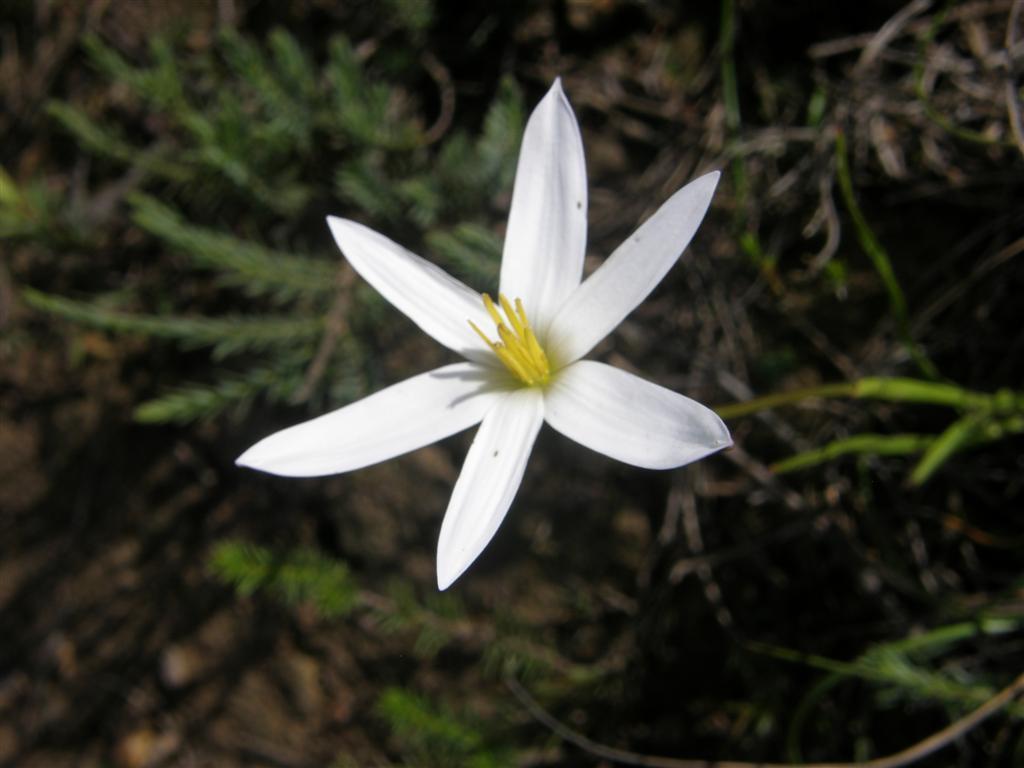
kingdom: Plantae
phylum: Tracheophyta
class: Liliopsida
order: Asparagales
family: Hypoxidaceae
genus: Pauridia
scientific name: Pauridia capensis
